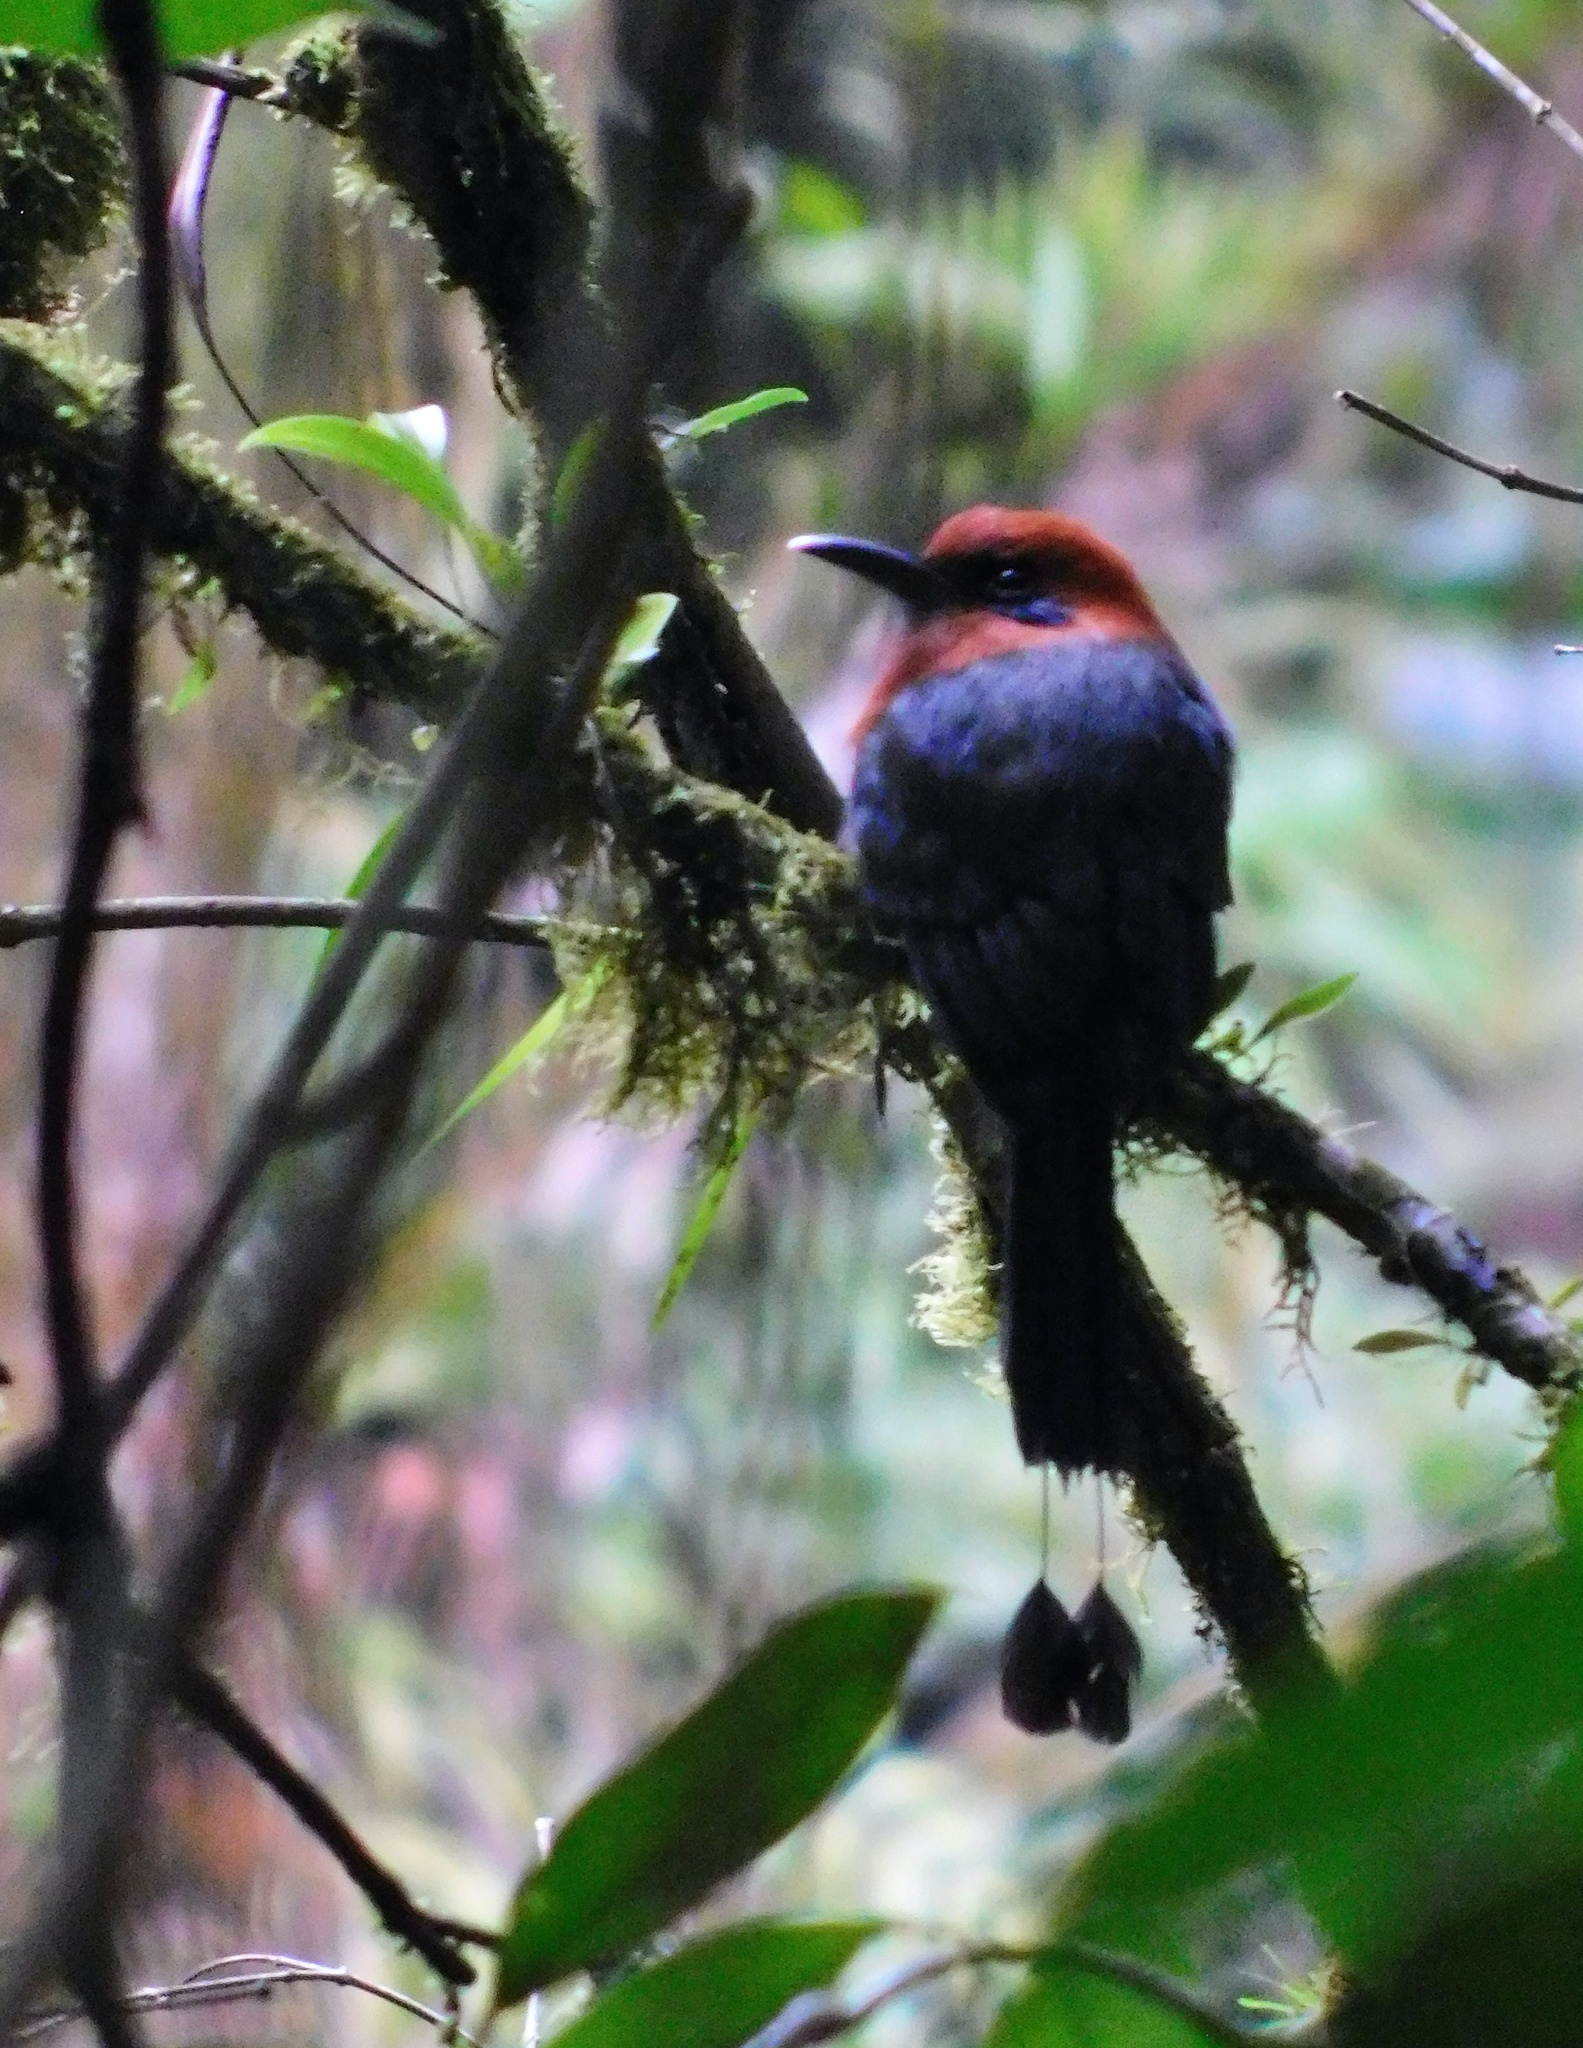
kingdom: Animalia
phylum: Chordata
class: Aves
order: Coraciiformes
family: Momotidae
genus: Baryphthengus
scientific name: Baryphthengus martii
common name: Rufous motmot
